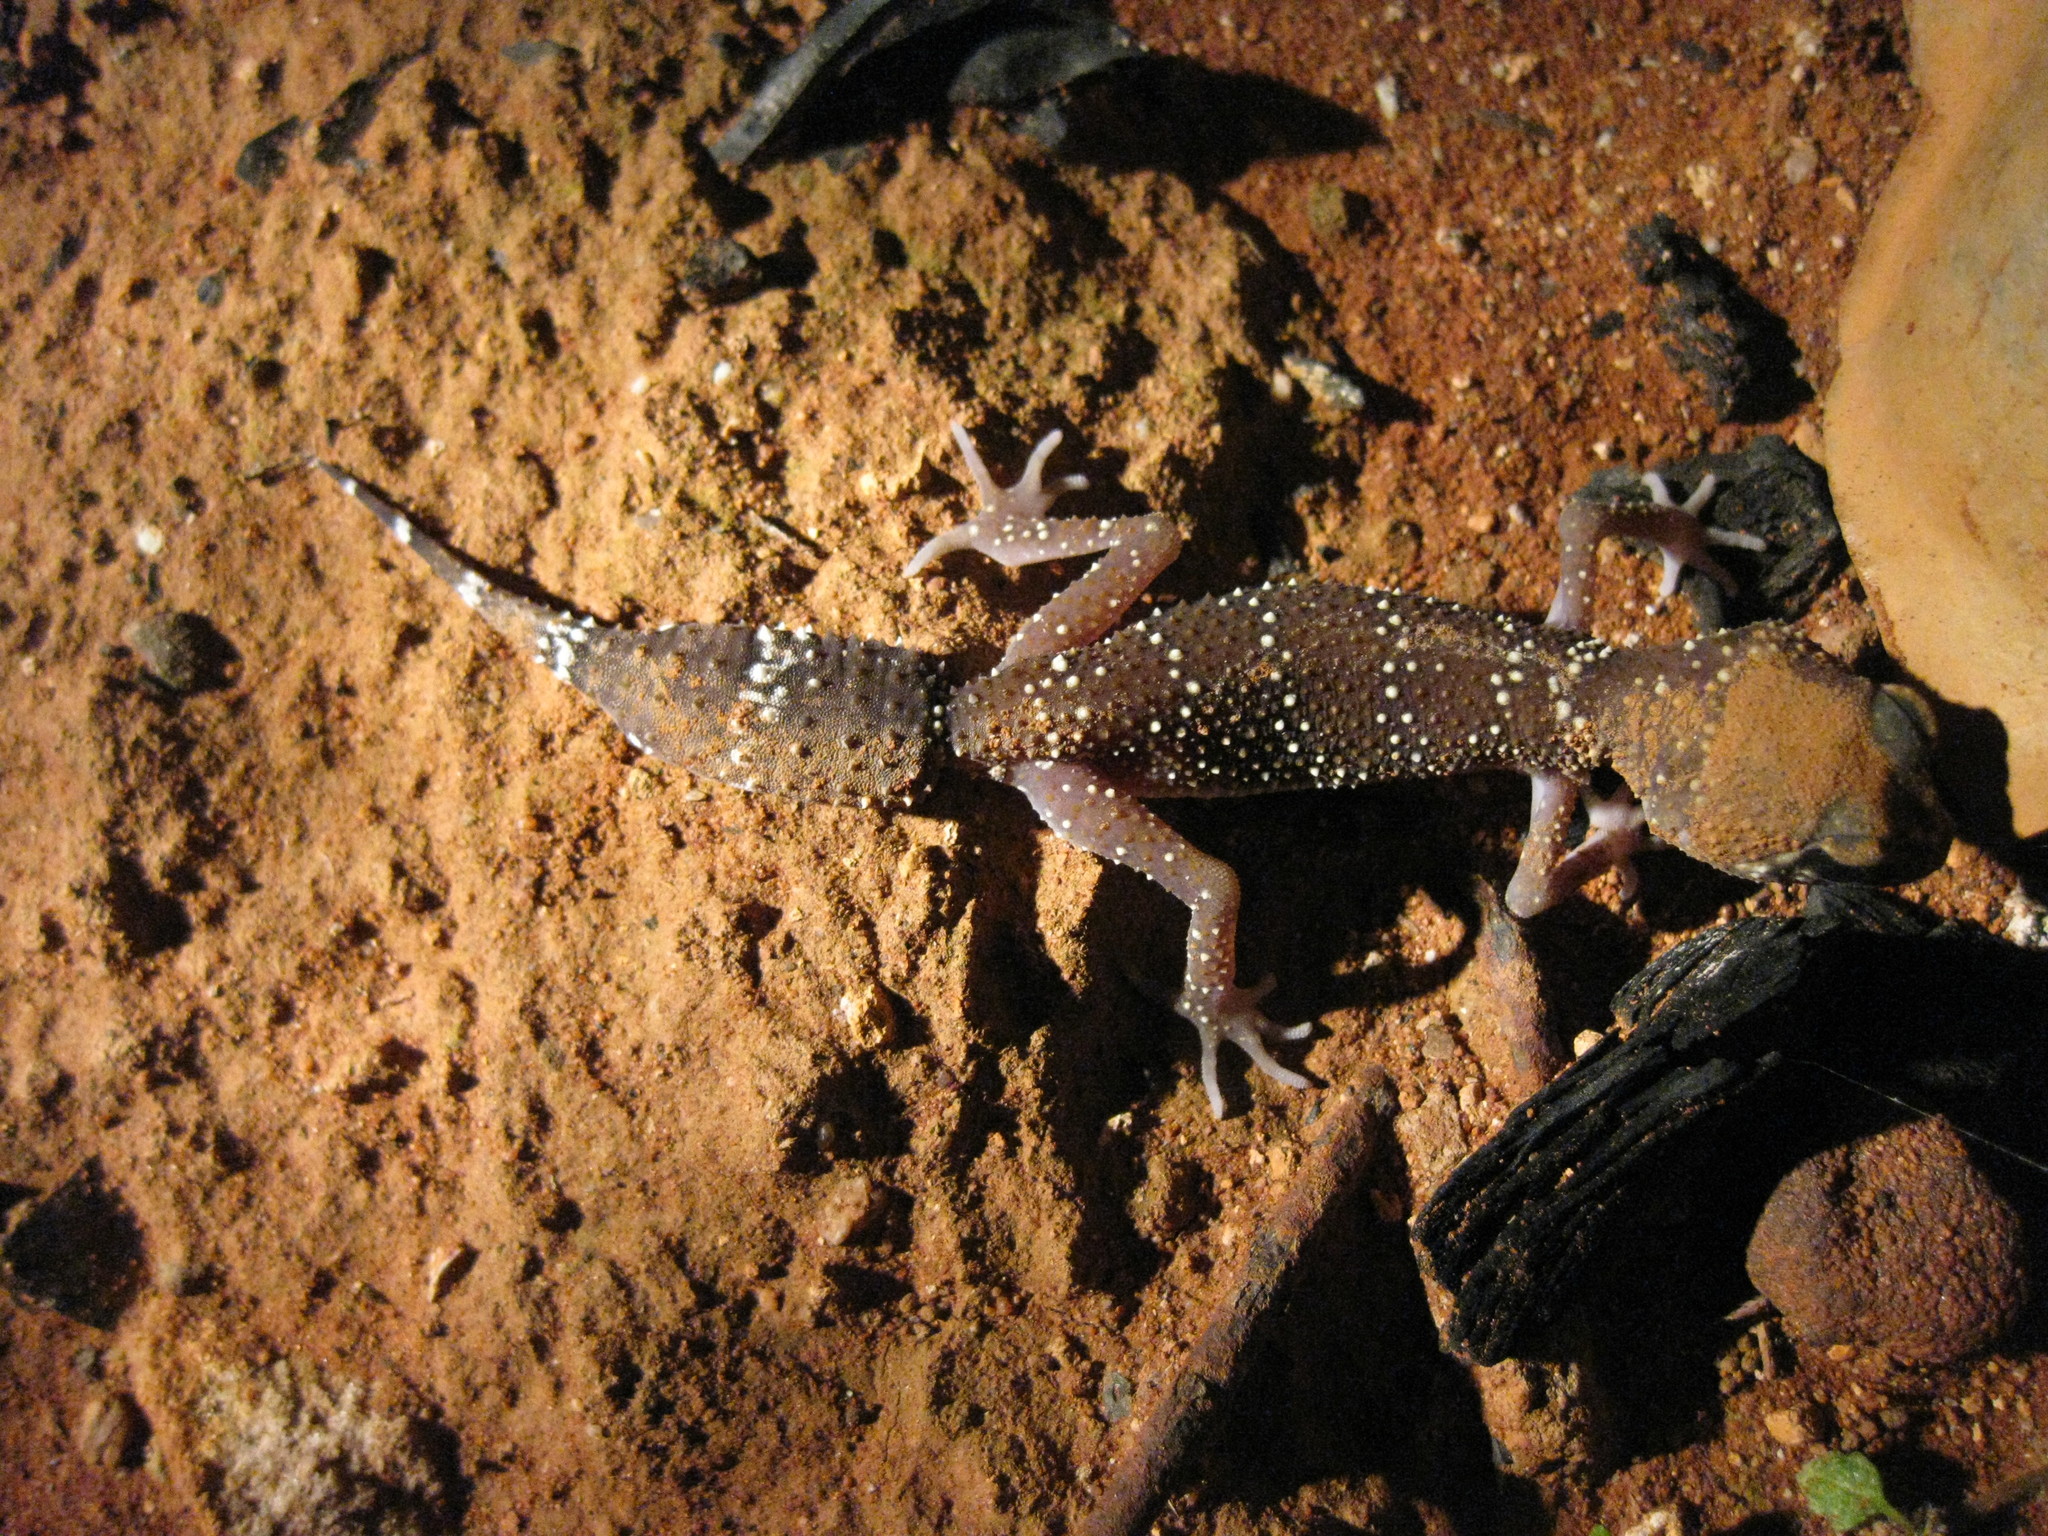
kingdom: Animalia
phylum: Chordata
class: Squamata
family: Carphodactylidae
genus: Underwoodisaurus
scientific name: Underwoodisaurus milii
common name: Barking gecko
